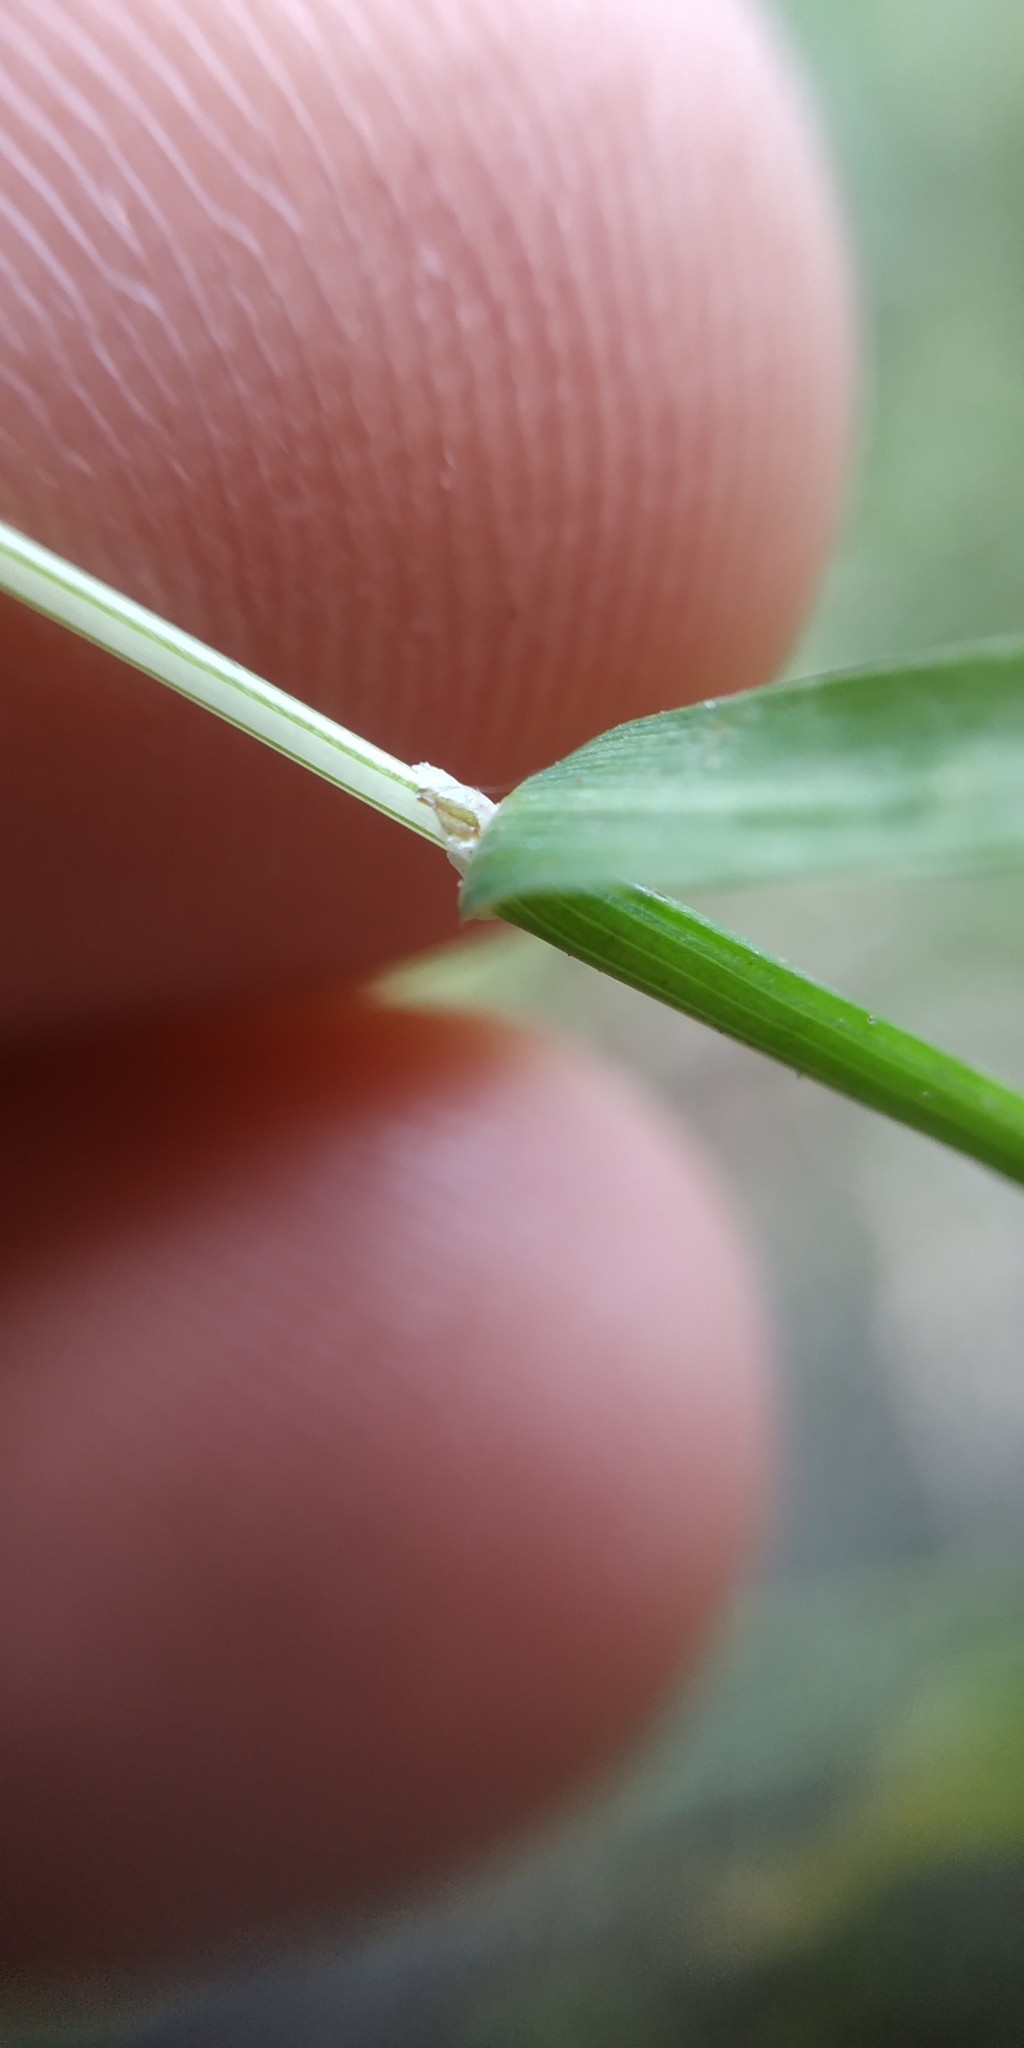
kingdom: Plantae
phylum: Tracheophyta
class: Liliopsida
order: Poales
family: Poaceae
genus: Poa
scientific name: Poa annua
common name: Annual bluegrass
